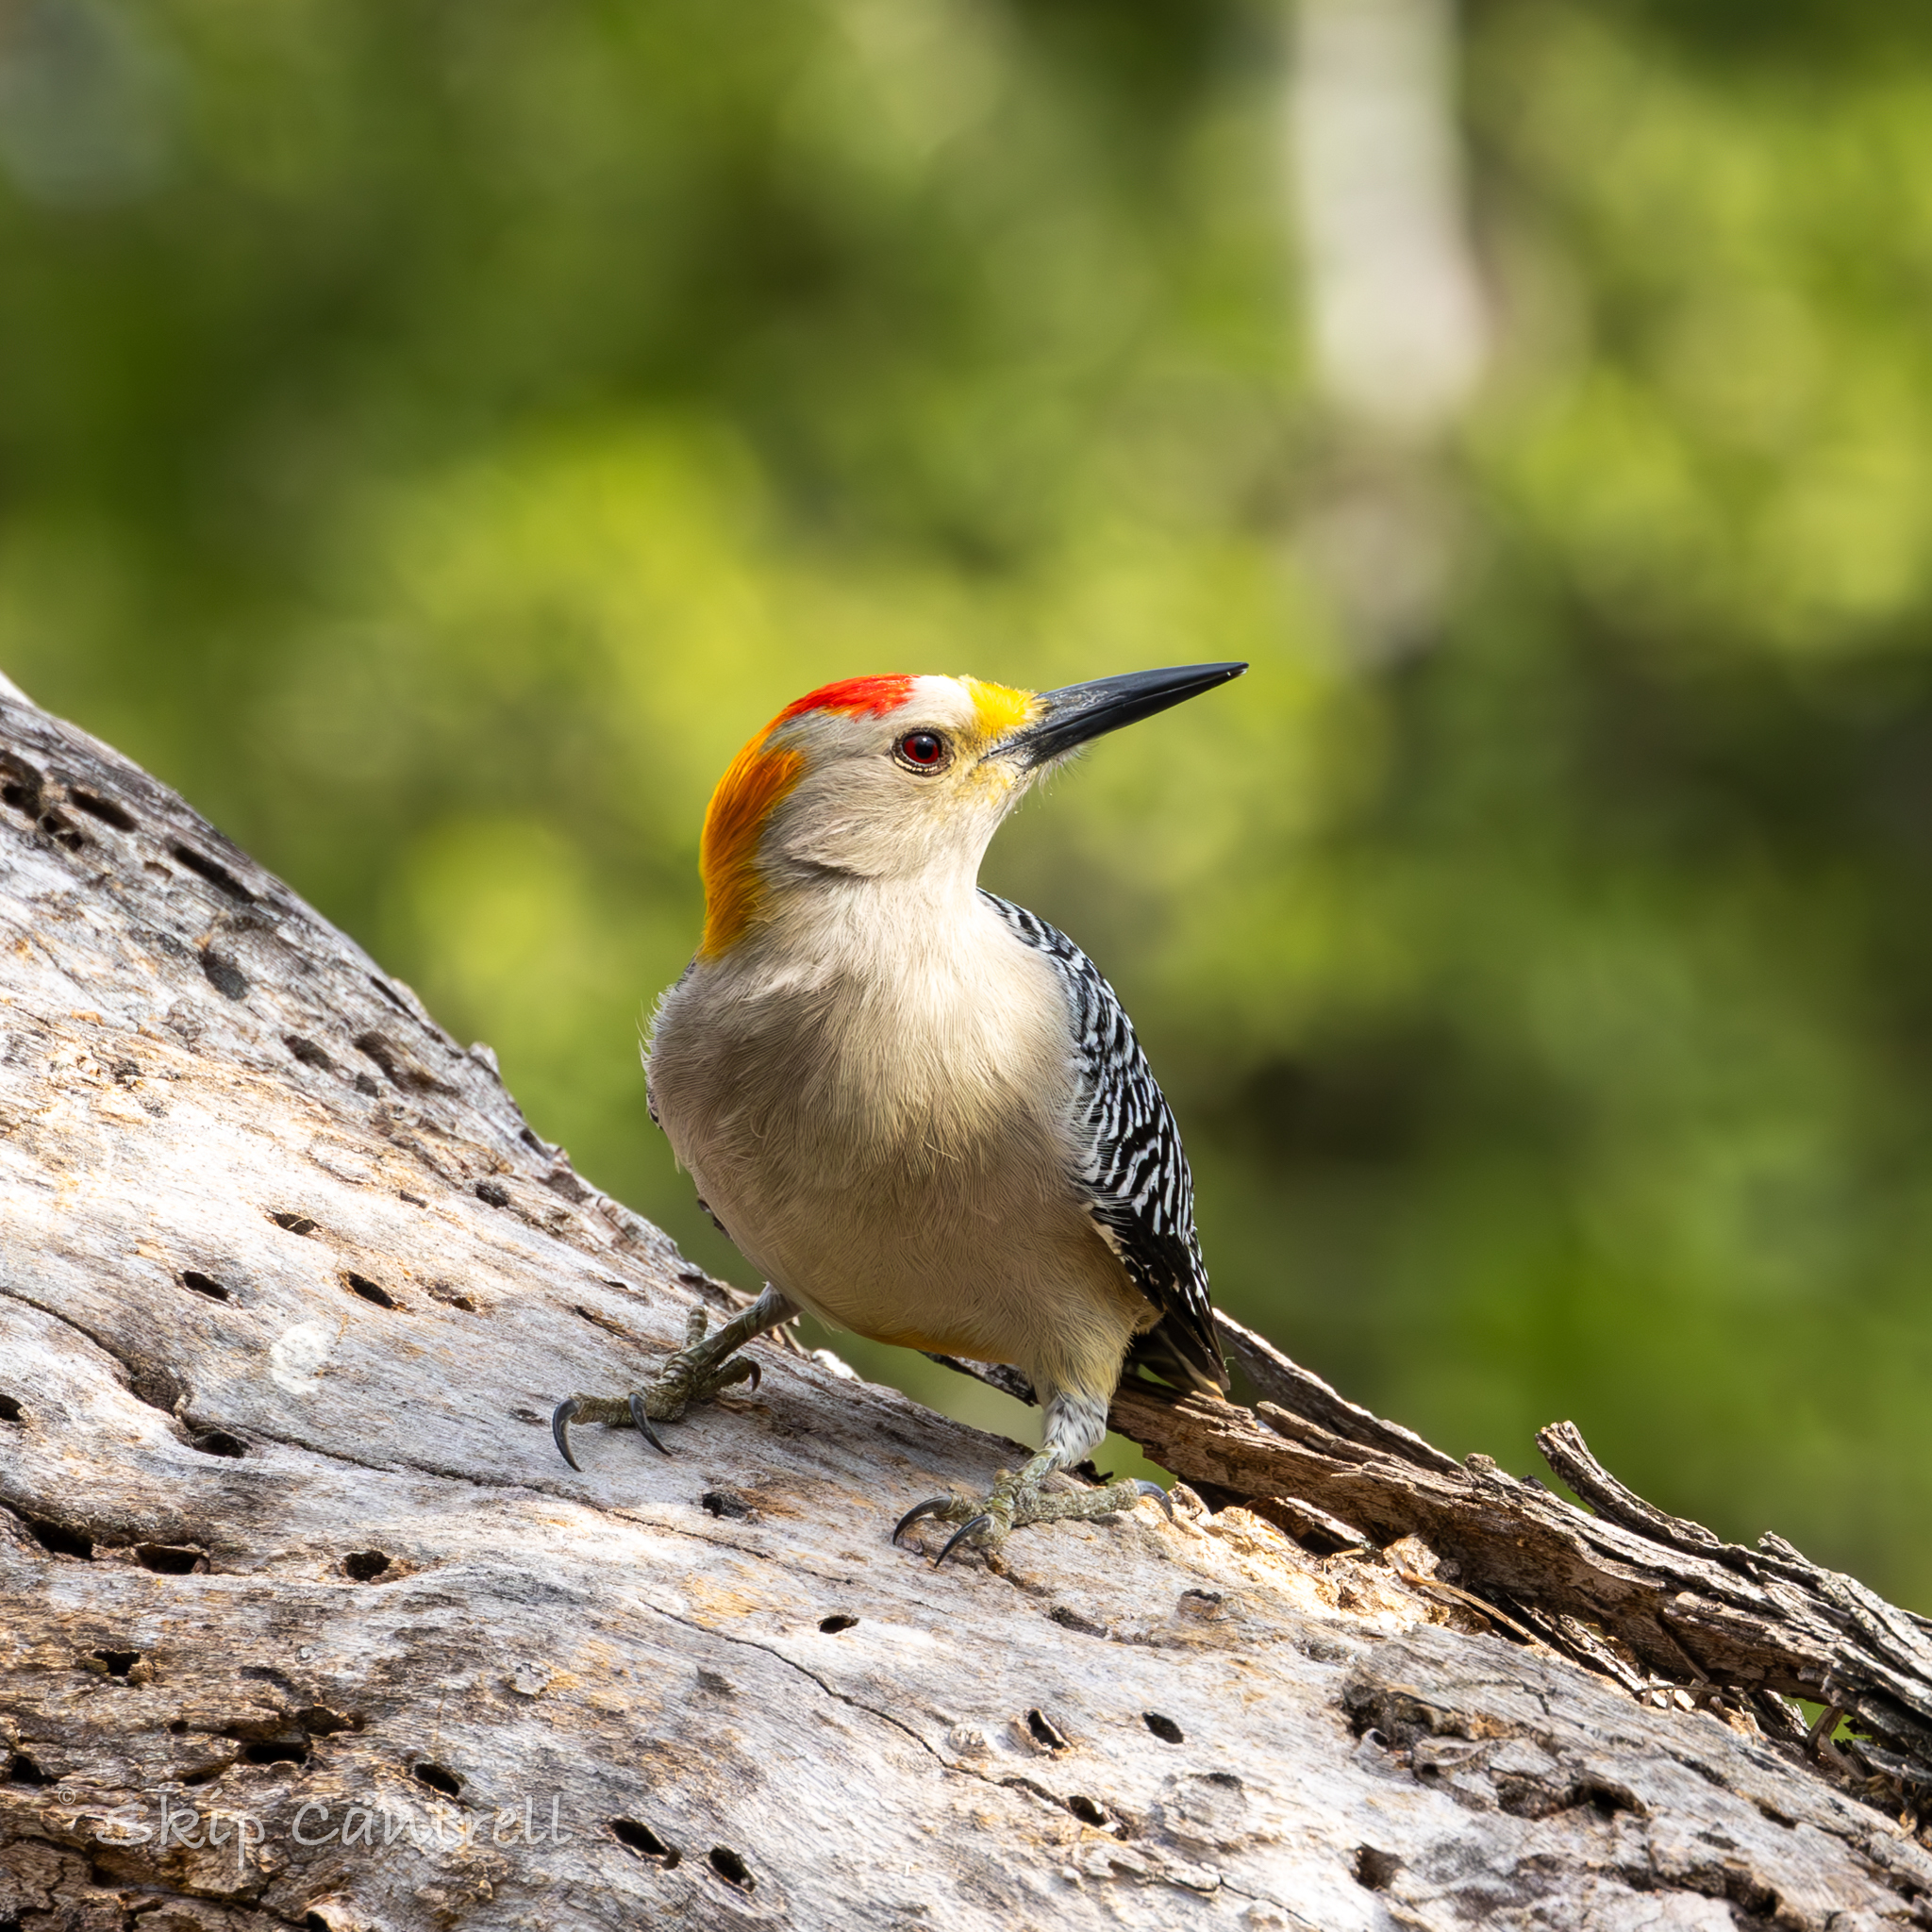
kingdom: Animalia
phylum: Chordata
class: Aves
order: Piciformes
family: Picidae
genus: Melanerpes
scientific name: Melanerpes aurifrons
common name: Golden-fronted woodpecker
